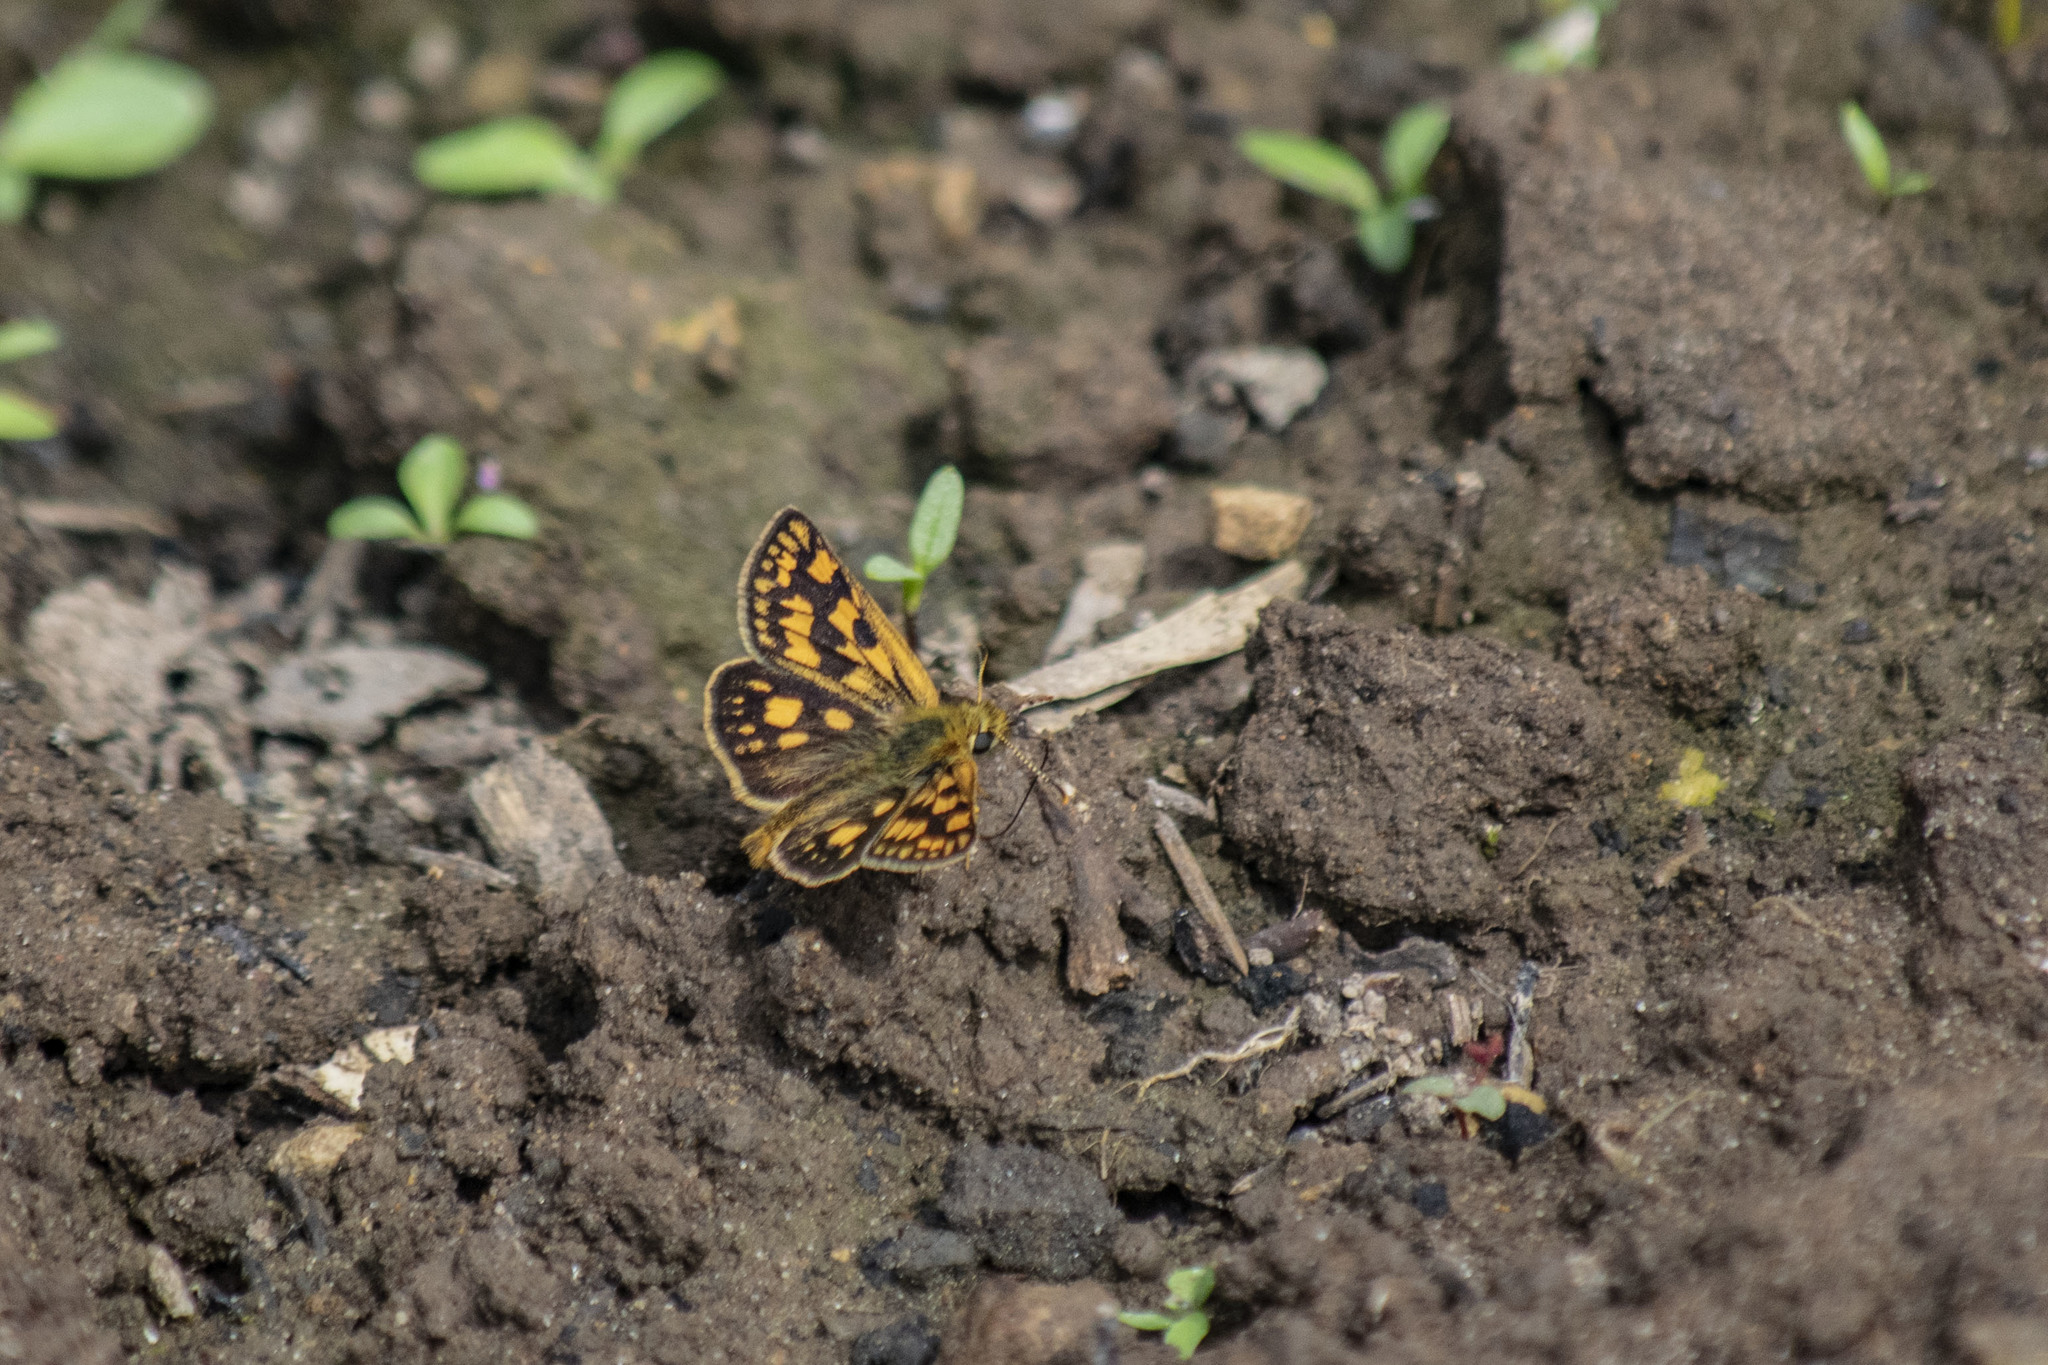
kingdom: Animalia
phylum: Arthropoda
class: Insecta
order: Lepidoptera
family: Hesperiidae
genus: Carterocephalus
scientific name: Carterocephalus palaemon
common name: Chequered skipper
